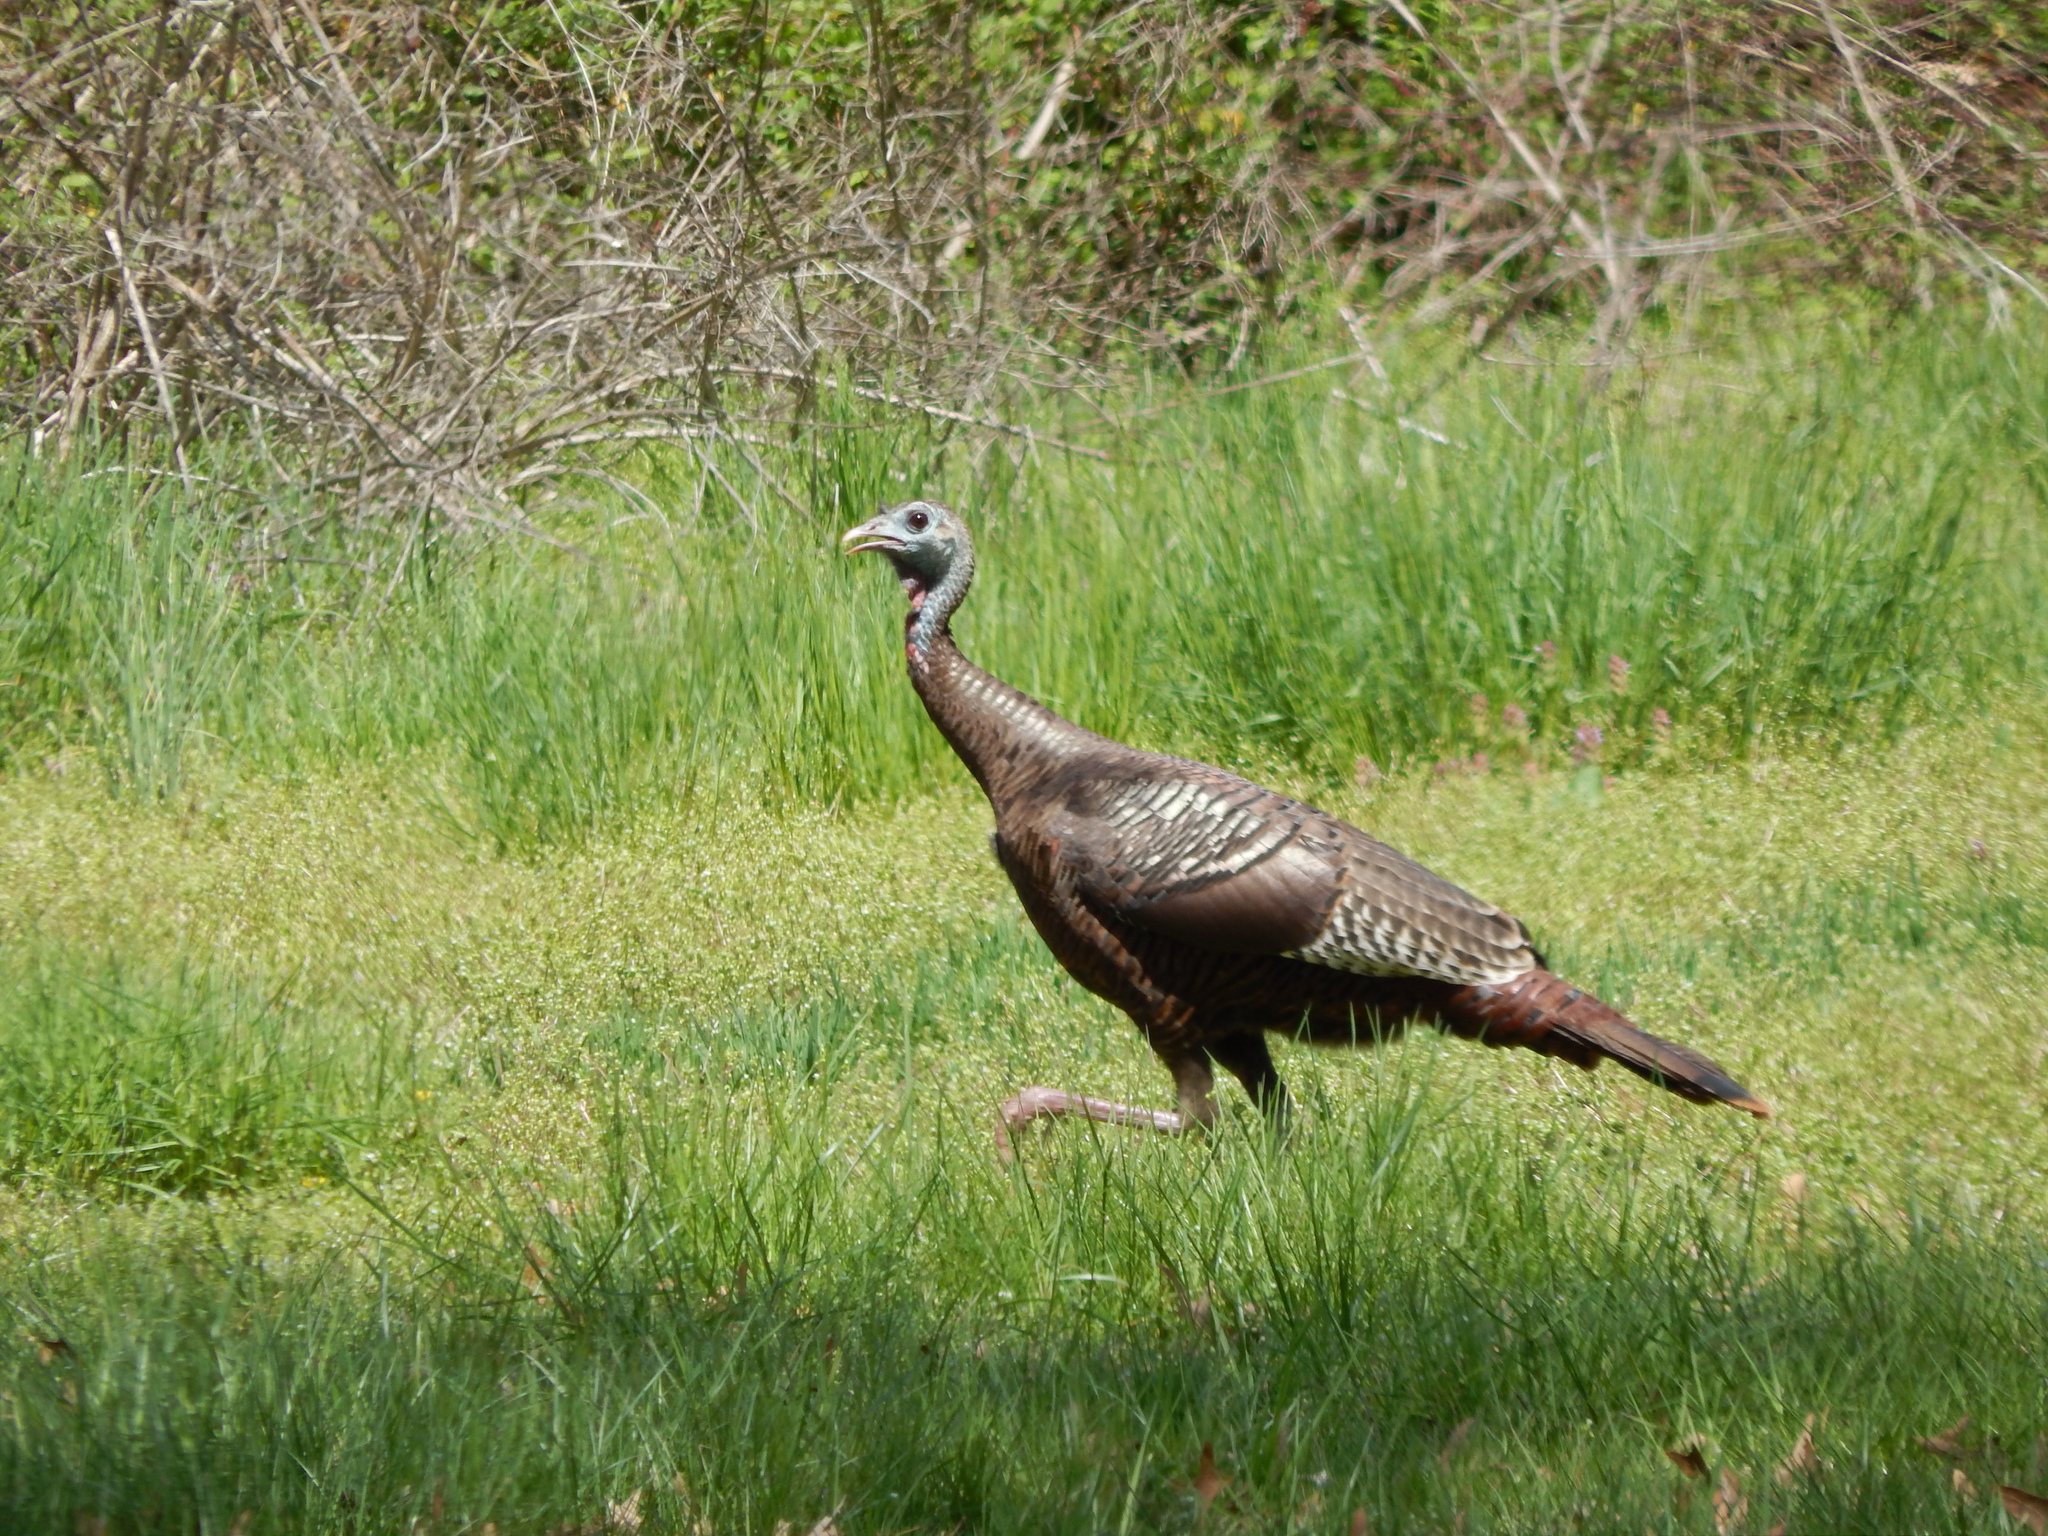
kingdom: Animalia
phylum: Chordata
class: Aves
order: Galliformes
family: Phasianidae
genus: Meleagris
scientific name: Meleagris gallopavo
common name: Wild turkey
